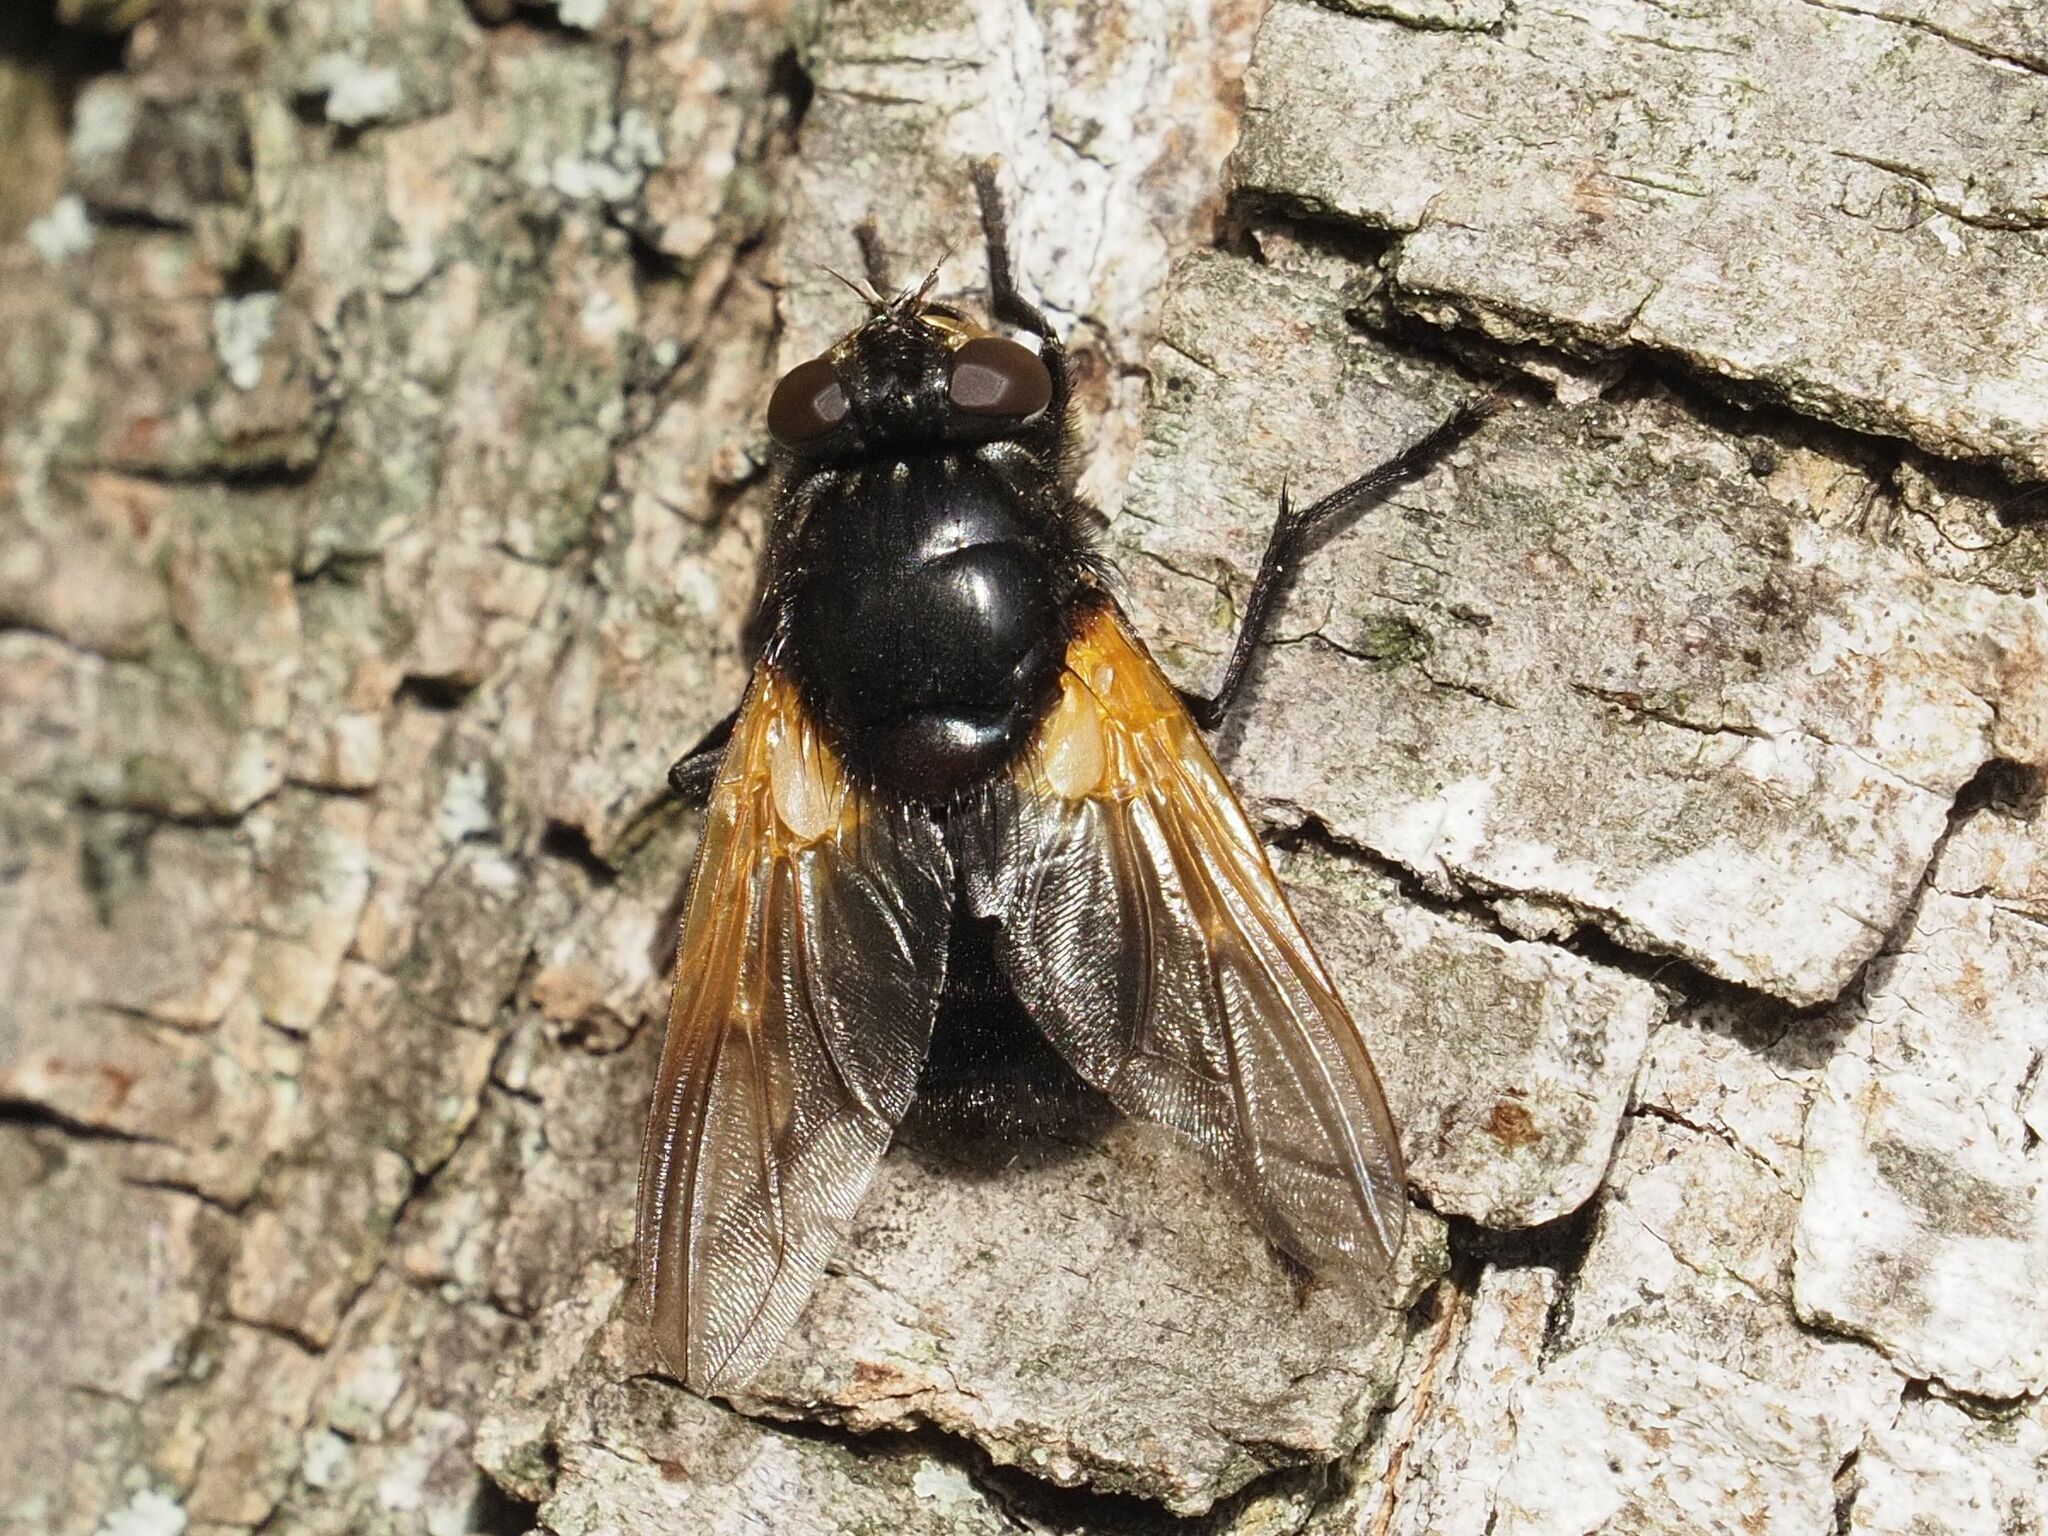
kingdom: Animalia
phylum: Arthropoda
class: Insecta
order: Diptera
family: Muscidae
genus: Mesembrina
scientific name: Mesembrina meridiana
